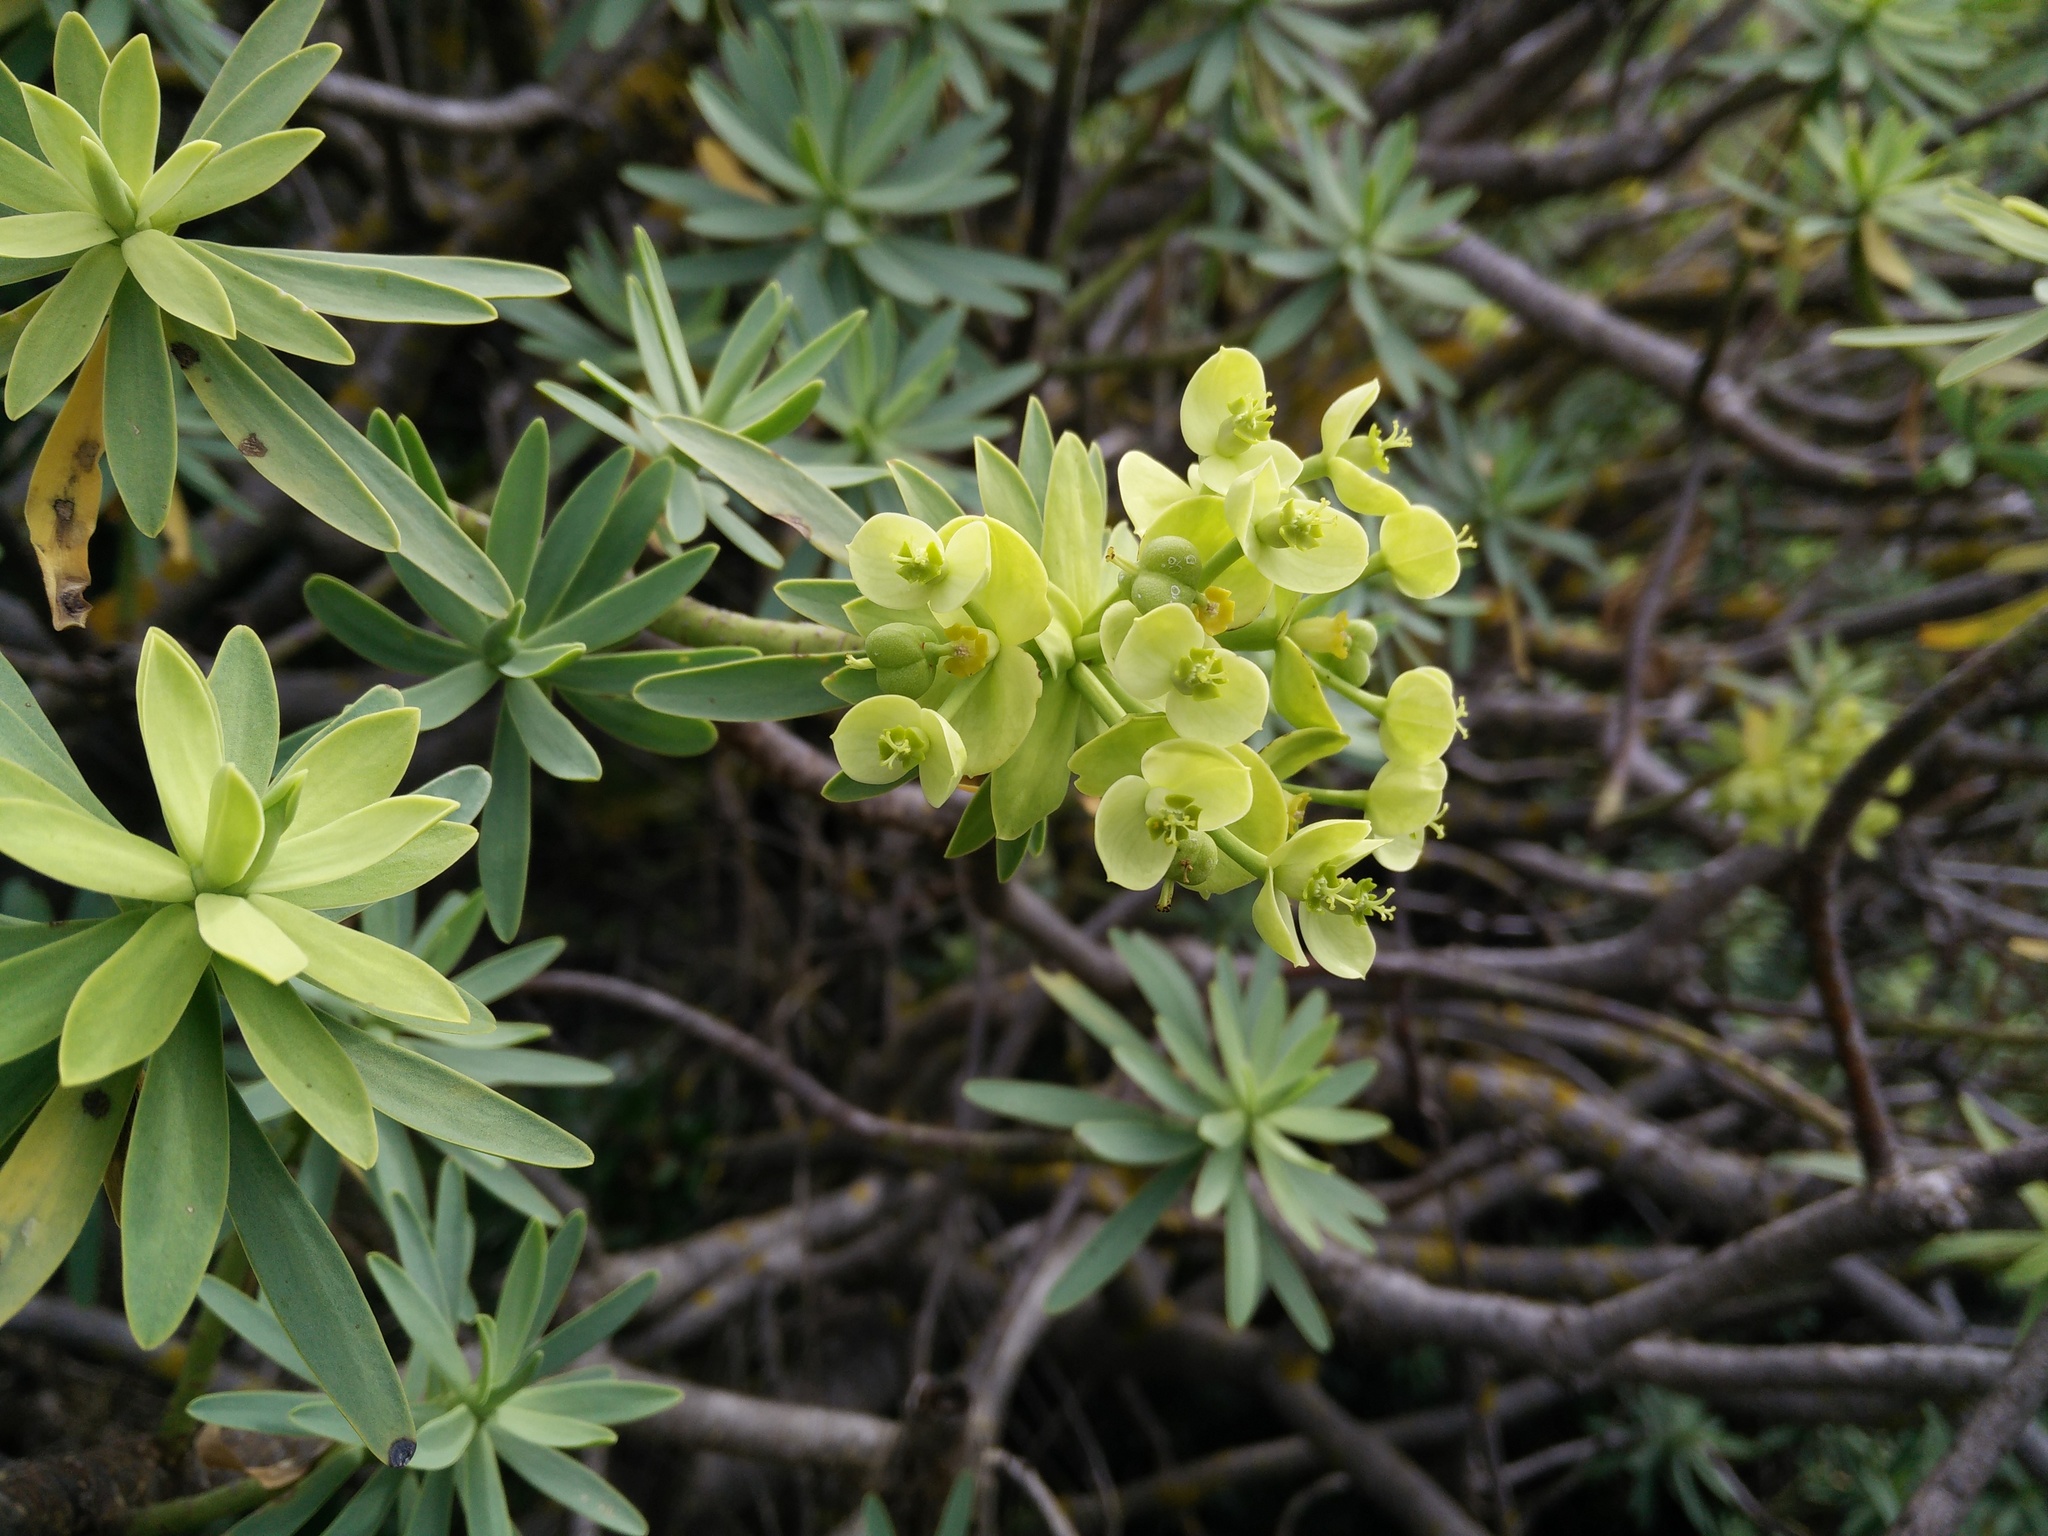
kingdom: Plantae
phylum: Tracheophyta
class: Magnoliopsida
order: Malpighiales
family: Euphorbiaceae
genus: Euphorbia
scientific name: Euphorbia pedroi
